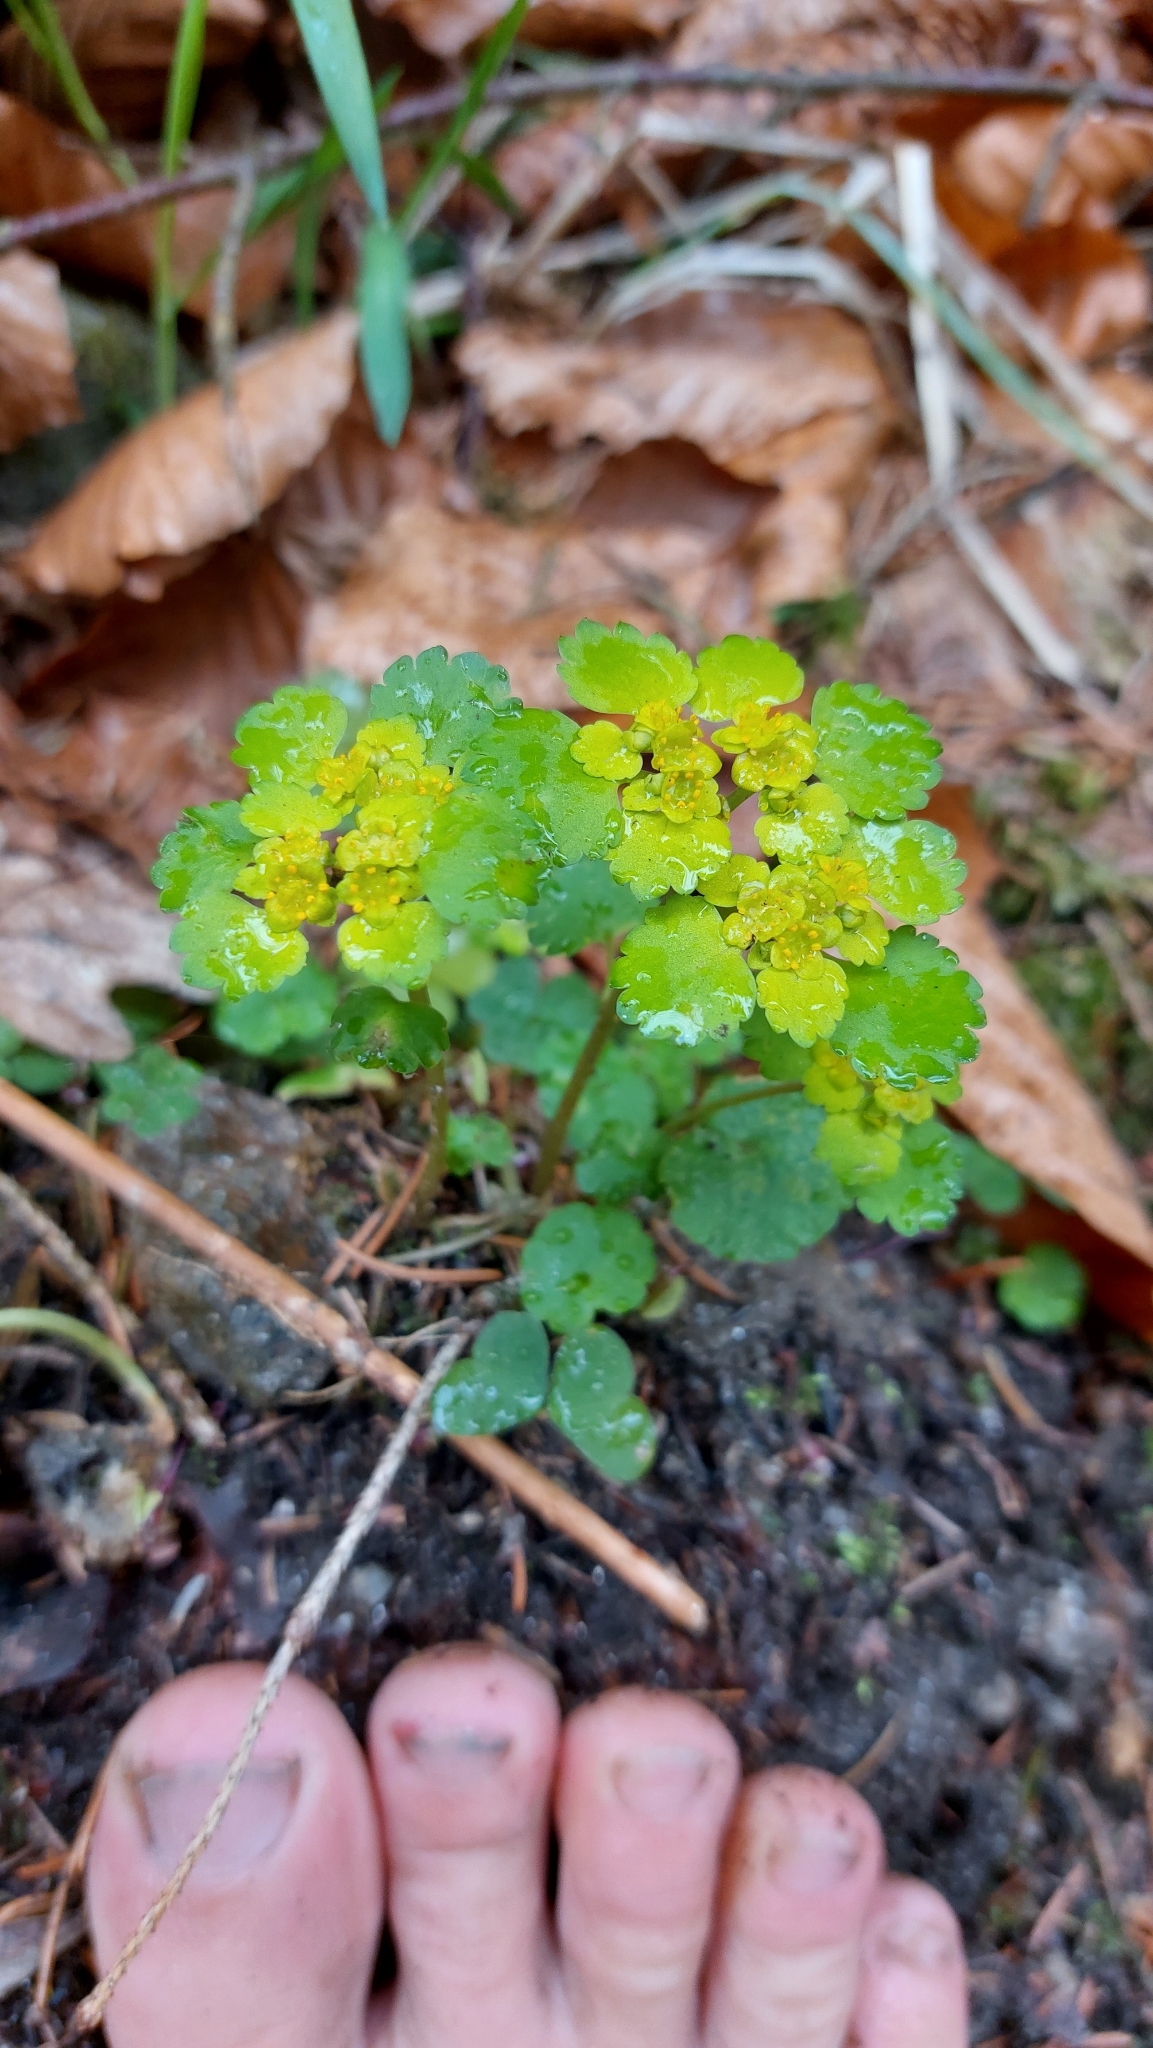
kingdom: Plantae
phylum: Tracheophyta
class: Magnoliopsida
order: Saxifragales
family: Saxifragaceae
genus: Chrysosplenium
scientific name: Chrysosplenium alternifolium
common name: Alternate-leaved golden-saxifrage
